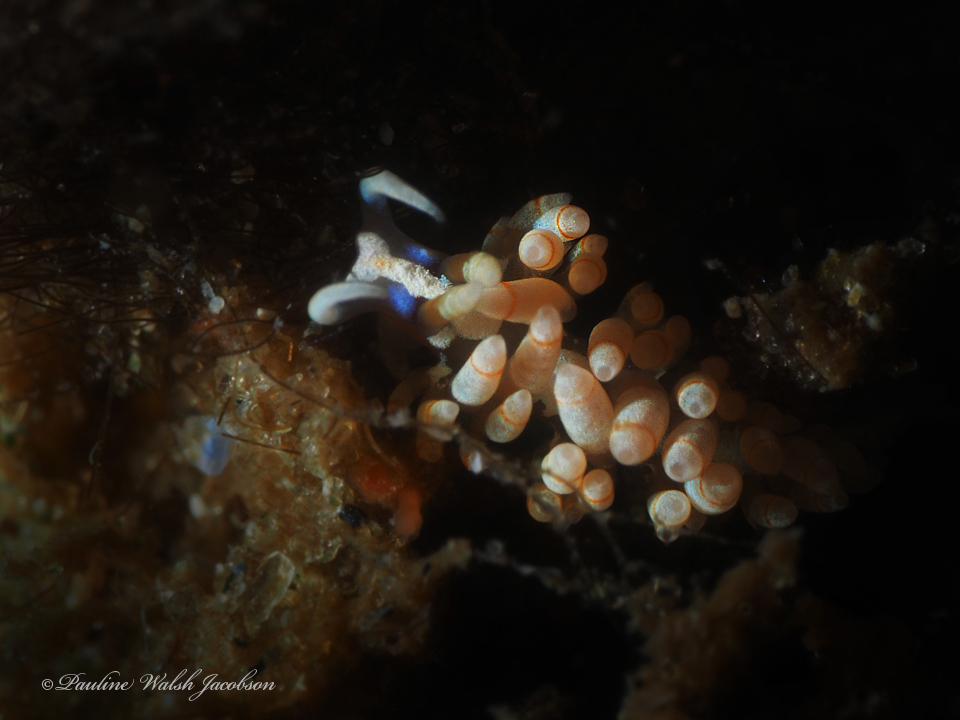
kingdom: Animalia
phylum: Mollusca
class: Gastropoda
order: Nudibranchia
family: Myrrhinidae
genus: Dondice
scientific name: Dondice freddiemercuryi
